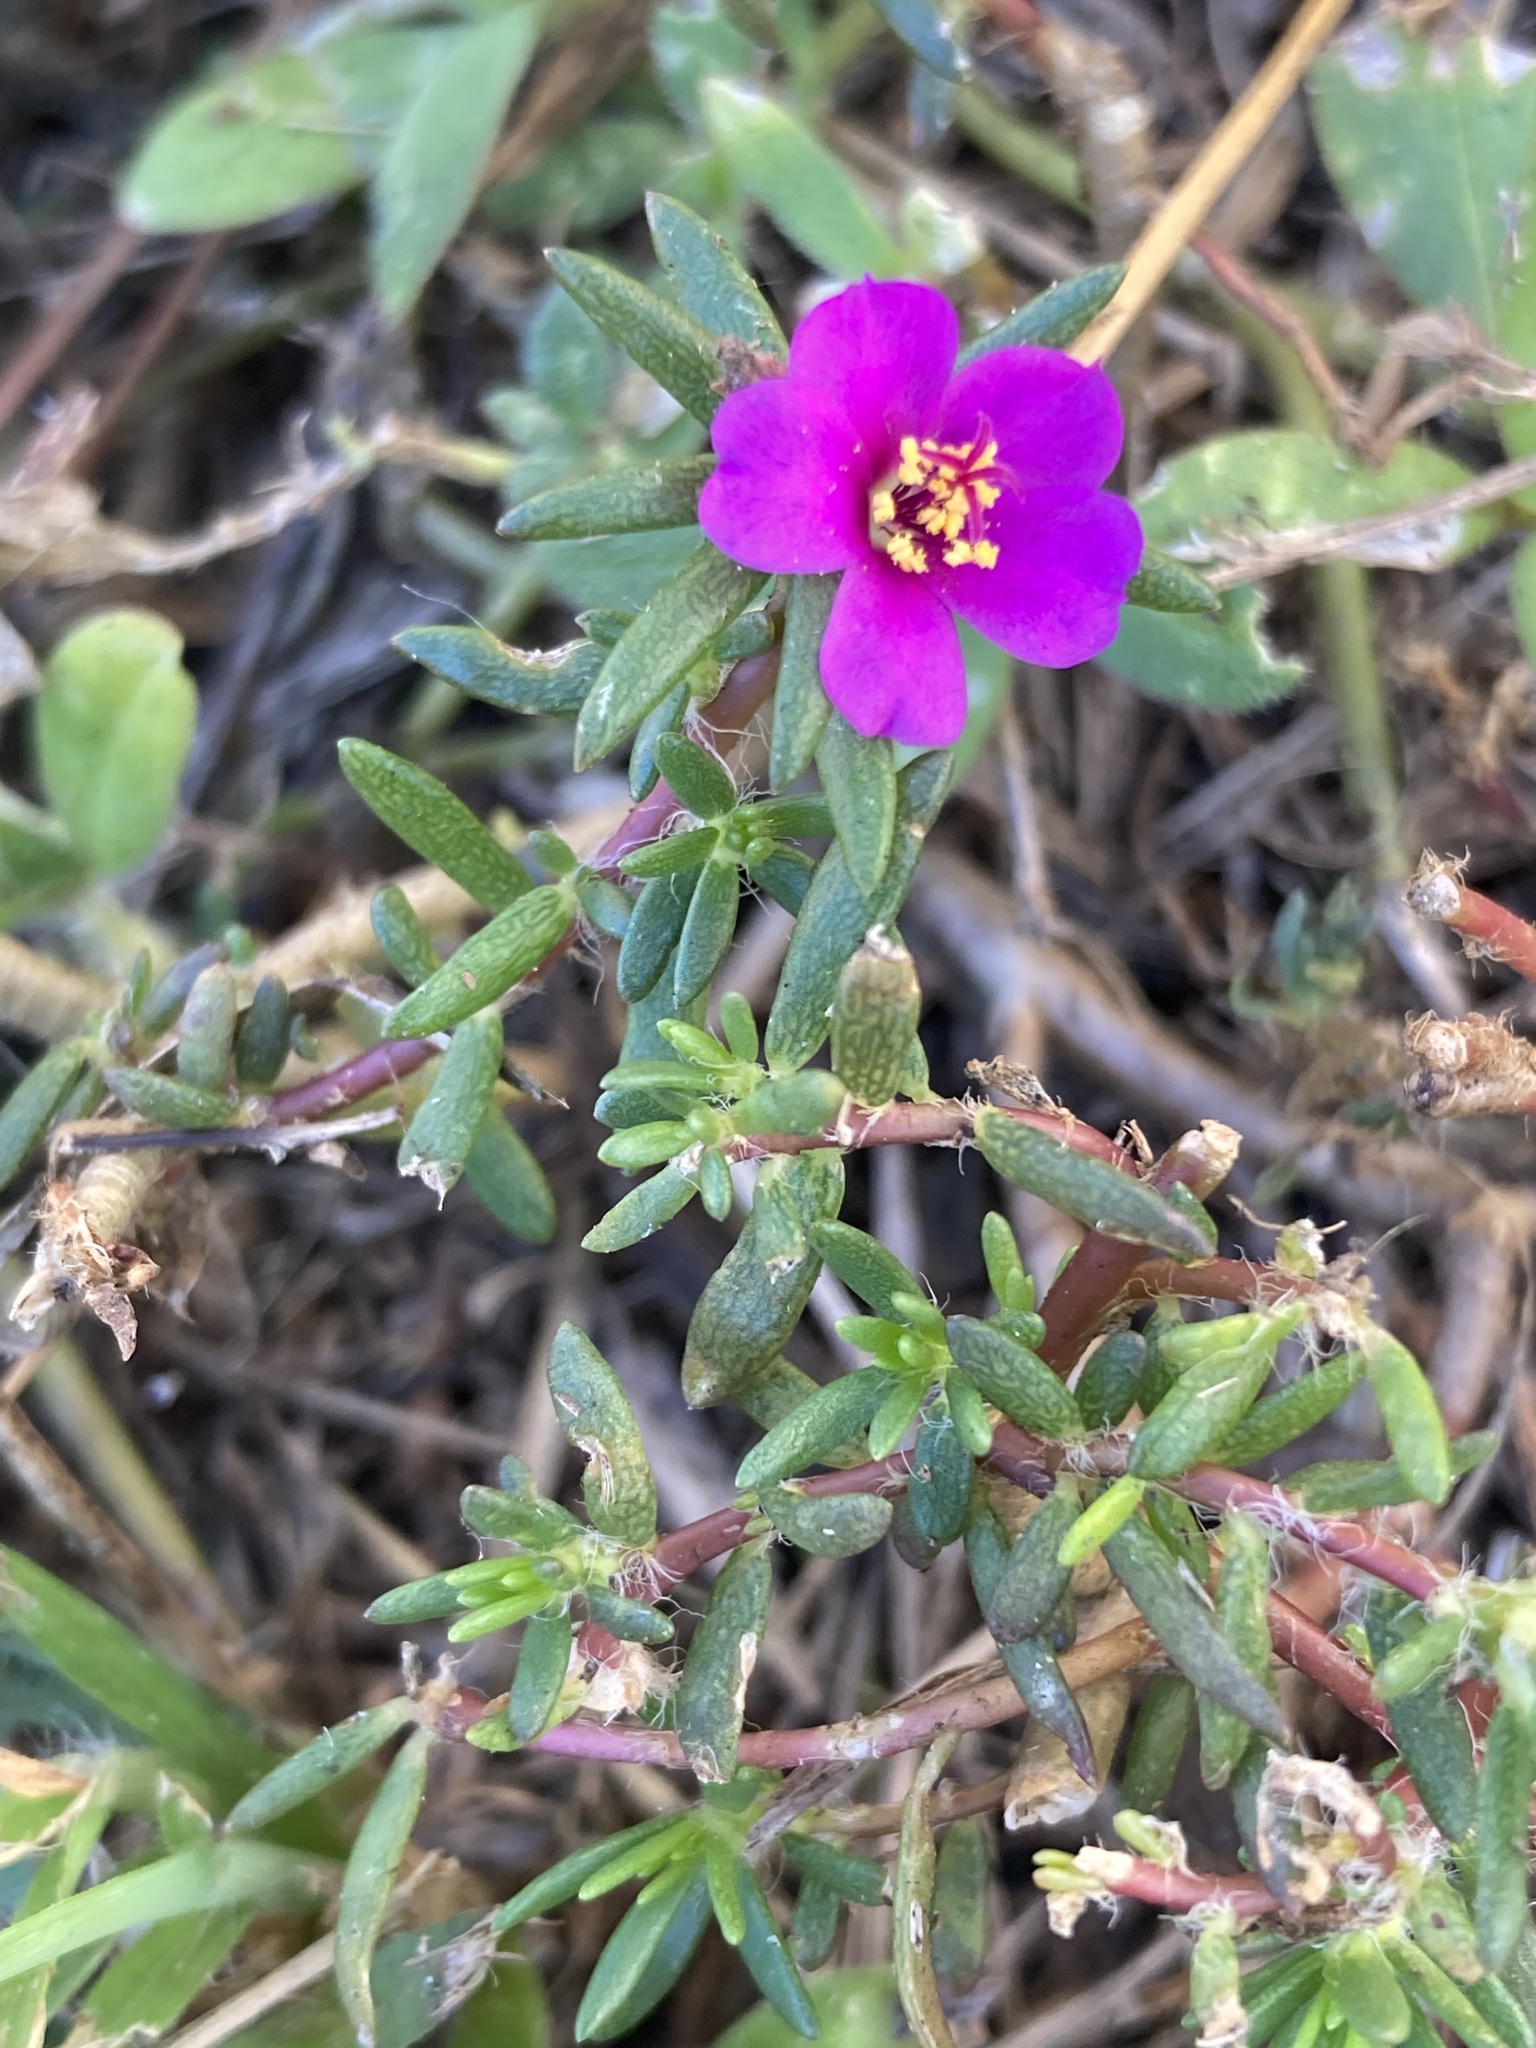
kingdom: Plantae
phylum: Tracheophyta
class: Magnoliopsida
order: Caryophyllales
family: Portulacaceae
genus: Portulaca
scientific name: Portulaca pilosa
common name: Kiss me quick
